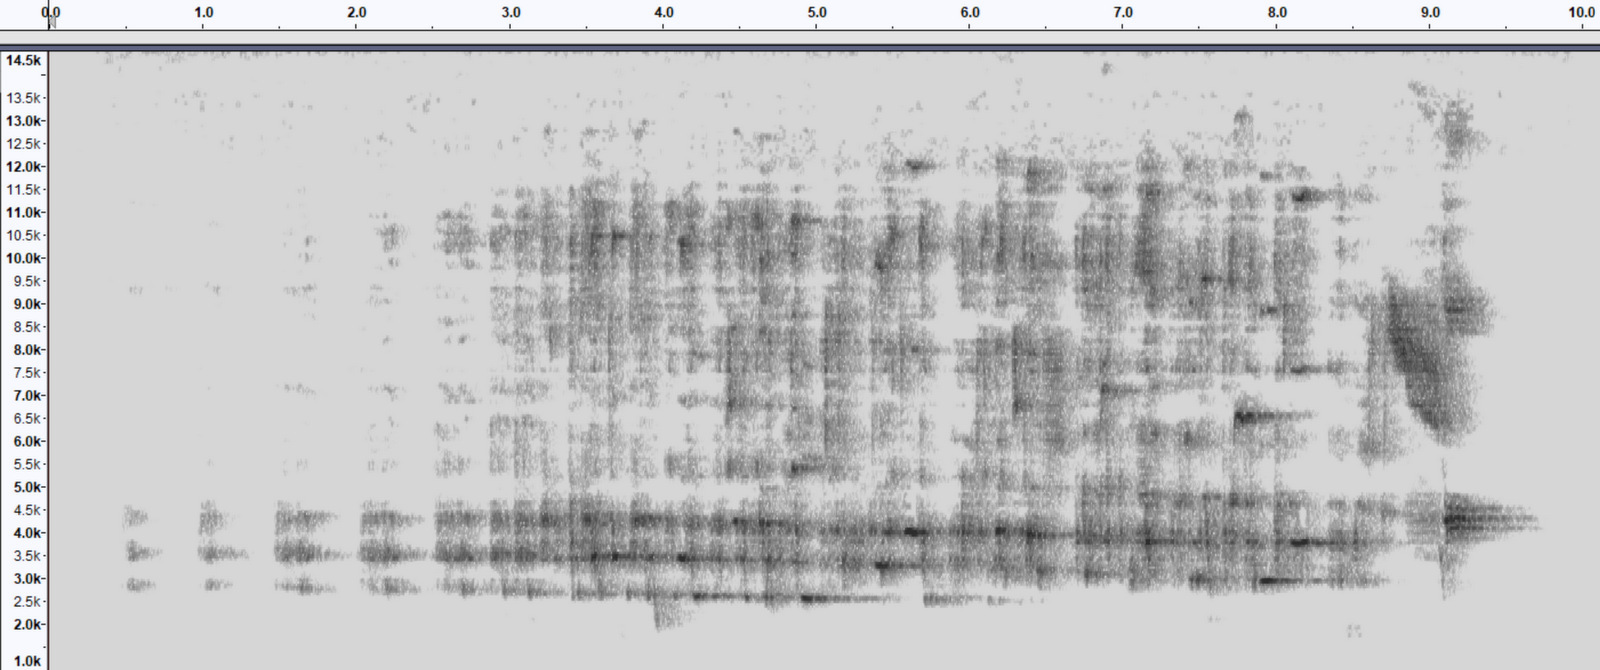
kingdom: Animalia
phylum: Chordata
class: Aves
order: Passeriformes
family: Turdidae
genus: Myadestes
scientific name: Myadestes occidentalis
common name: Brown-backed solitaire
